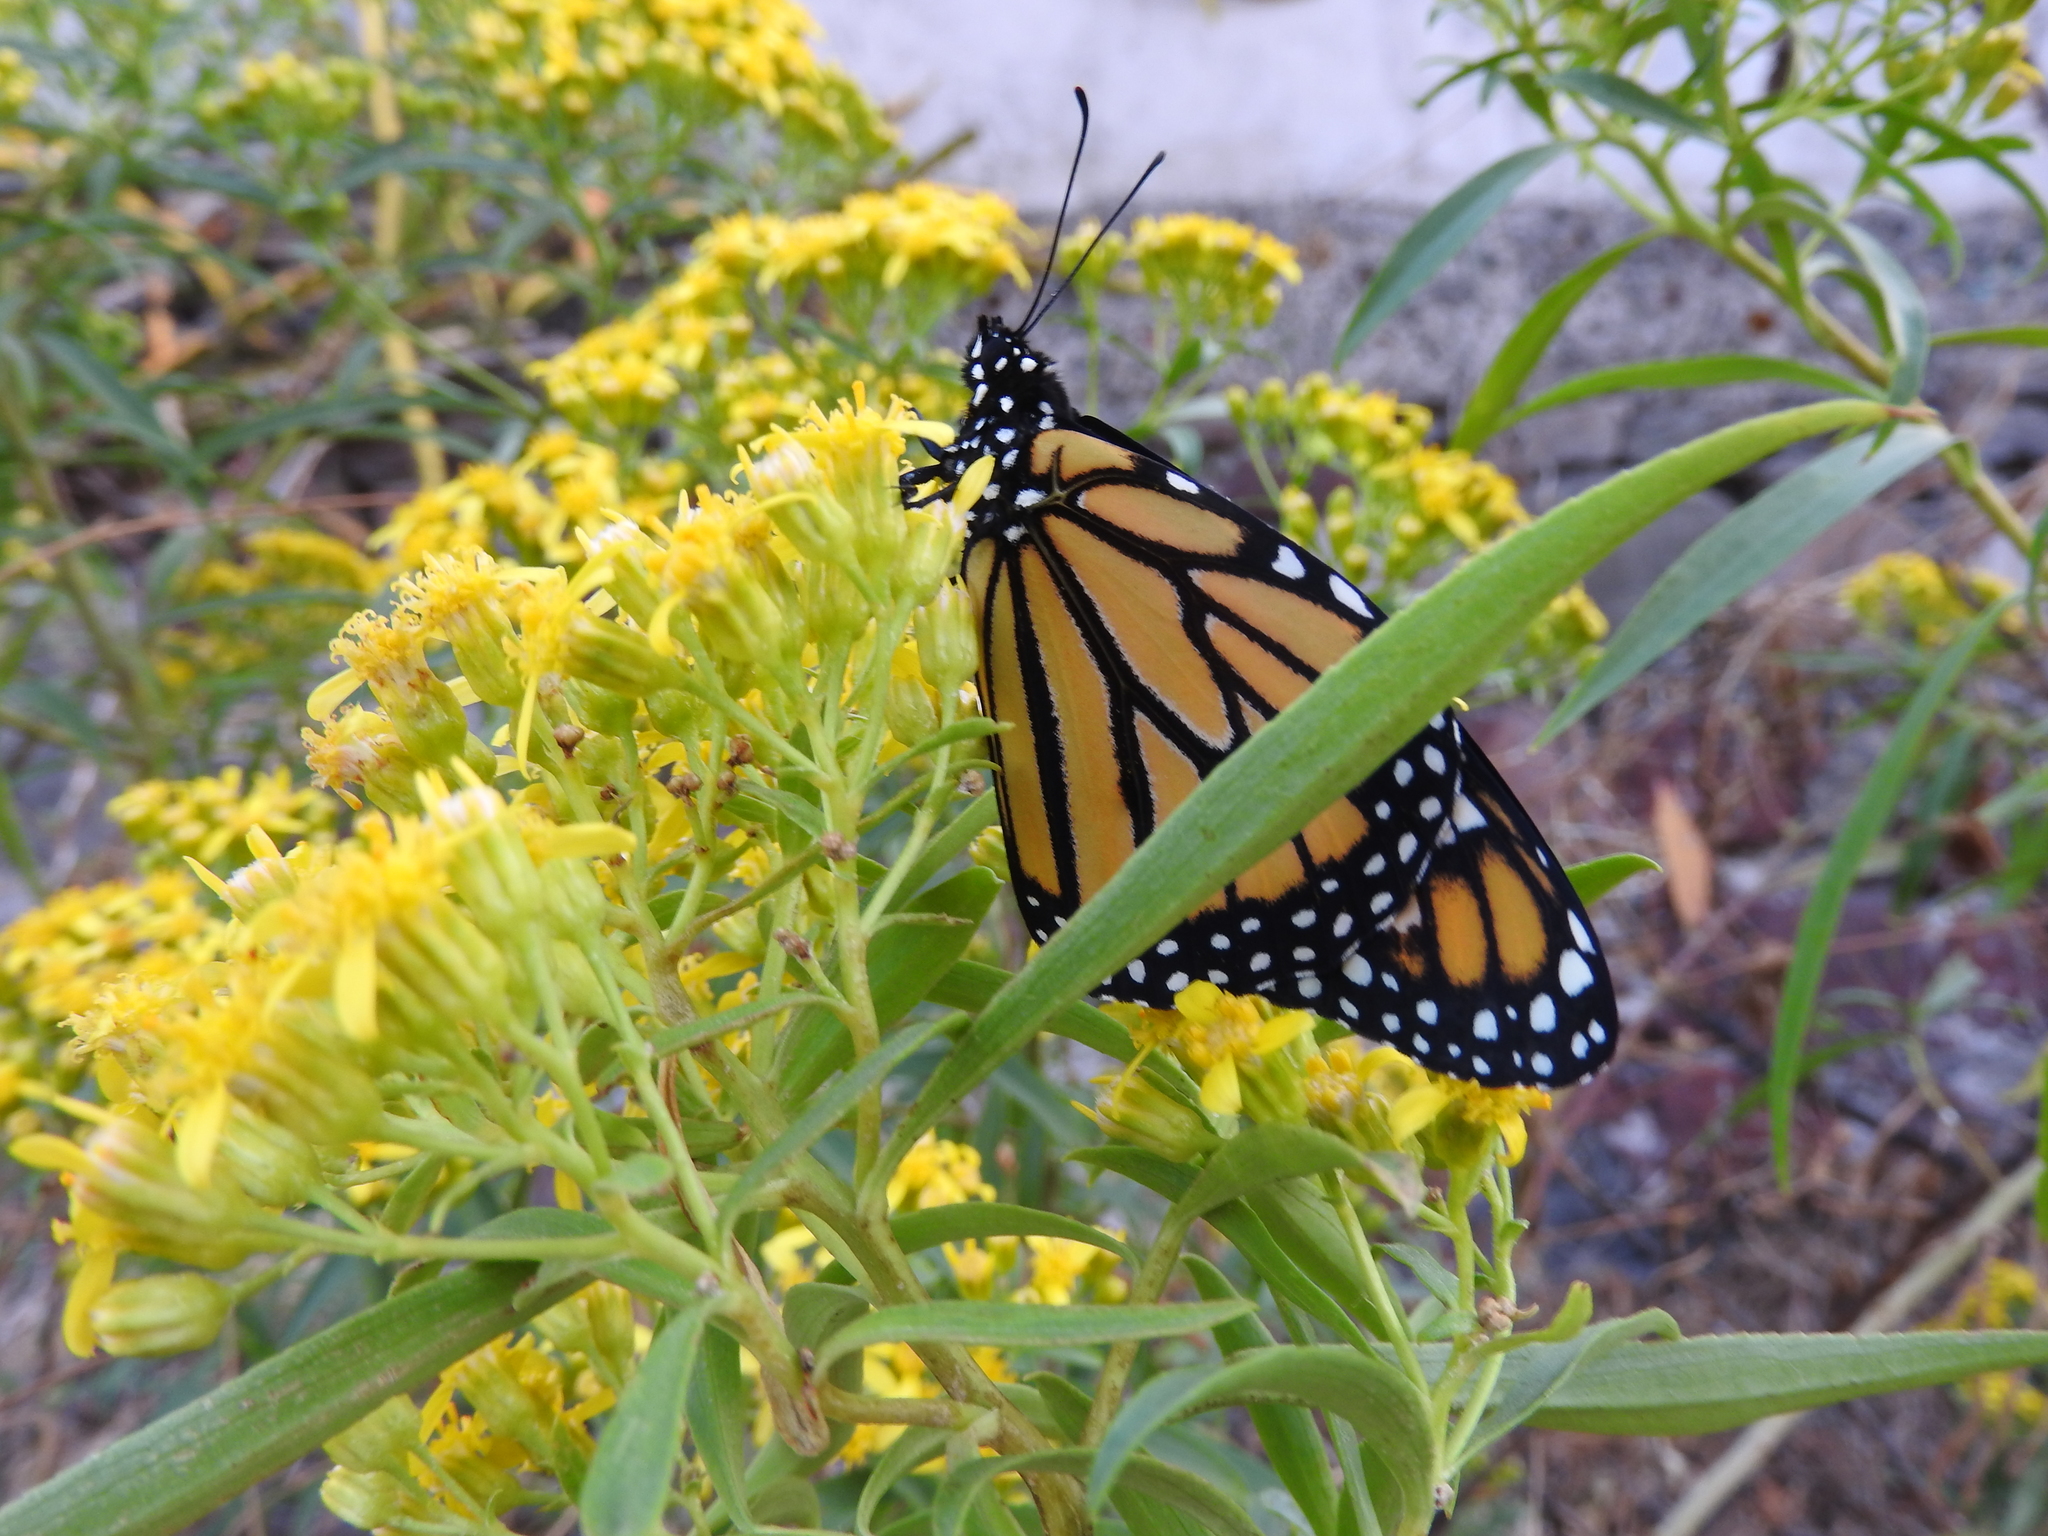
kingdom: Animalia
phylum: Arthropoda
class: Insecta
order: Lepidoptera
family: Nymphalidae
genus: Danaus
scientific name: Danaus plexippus
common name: Monarch
